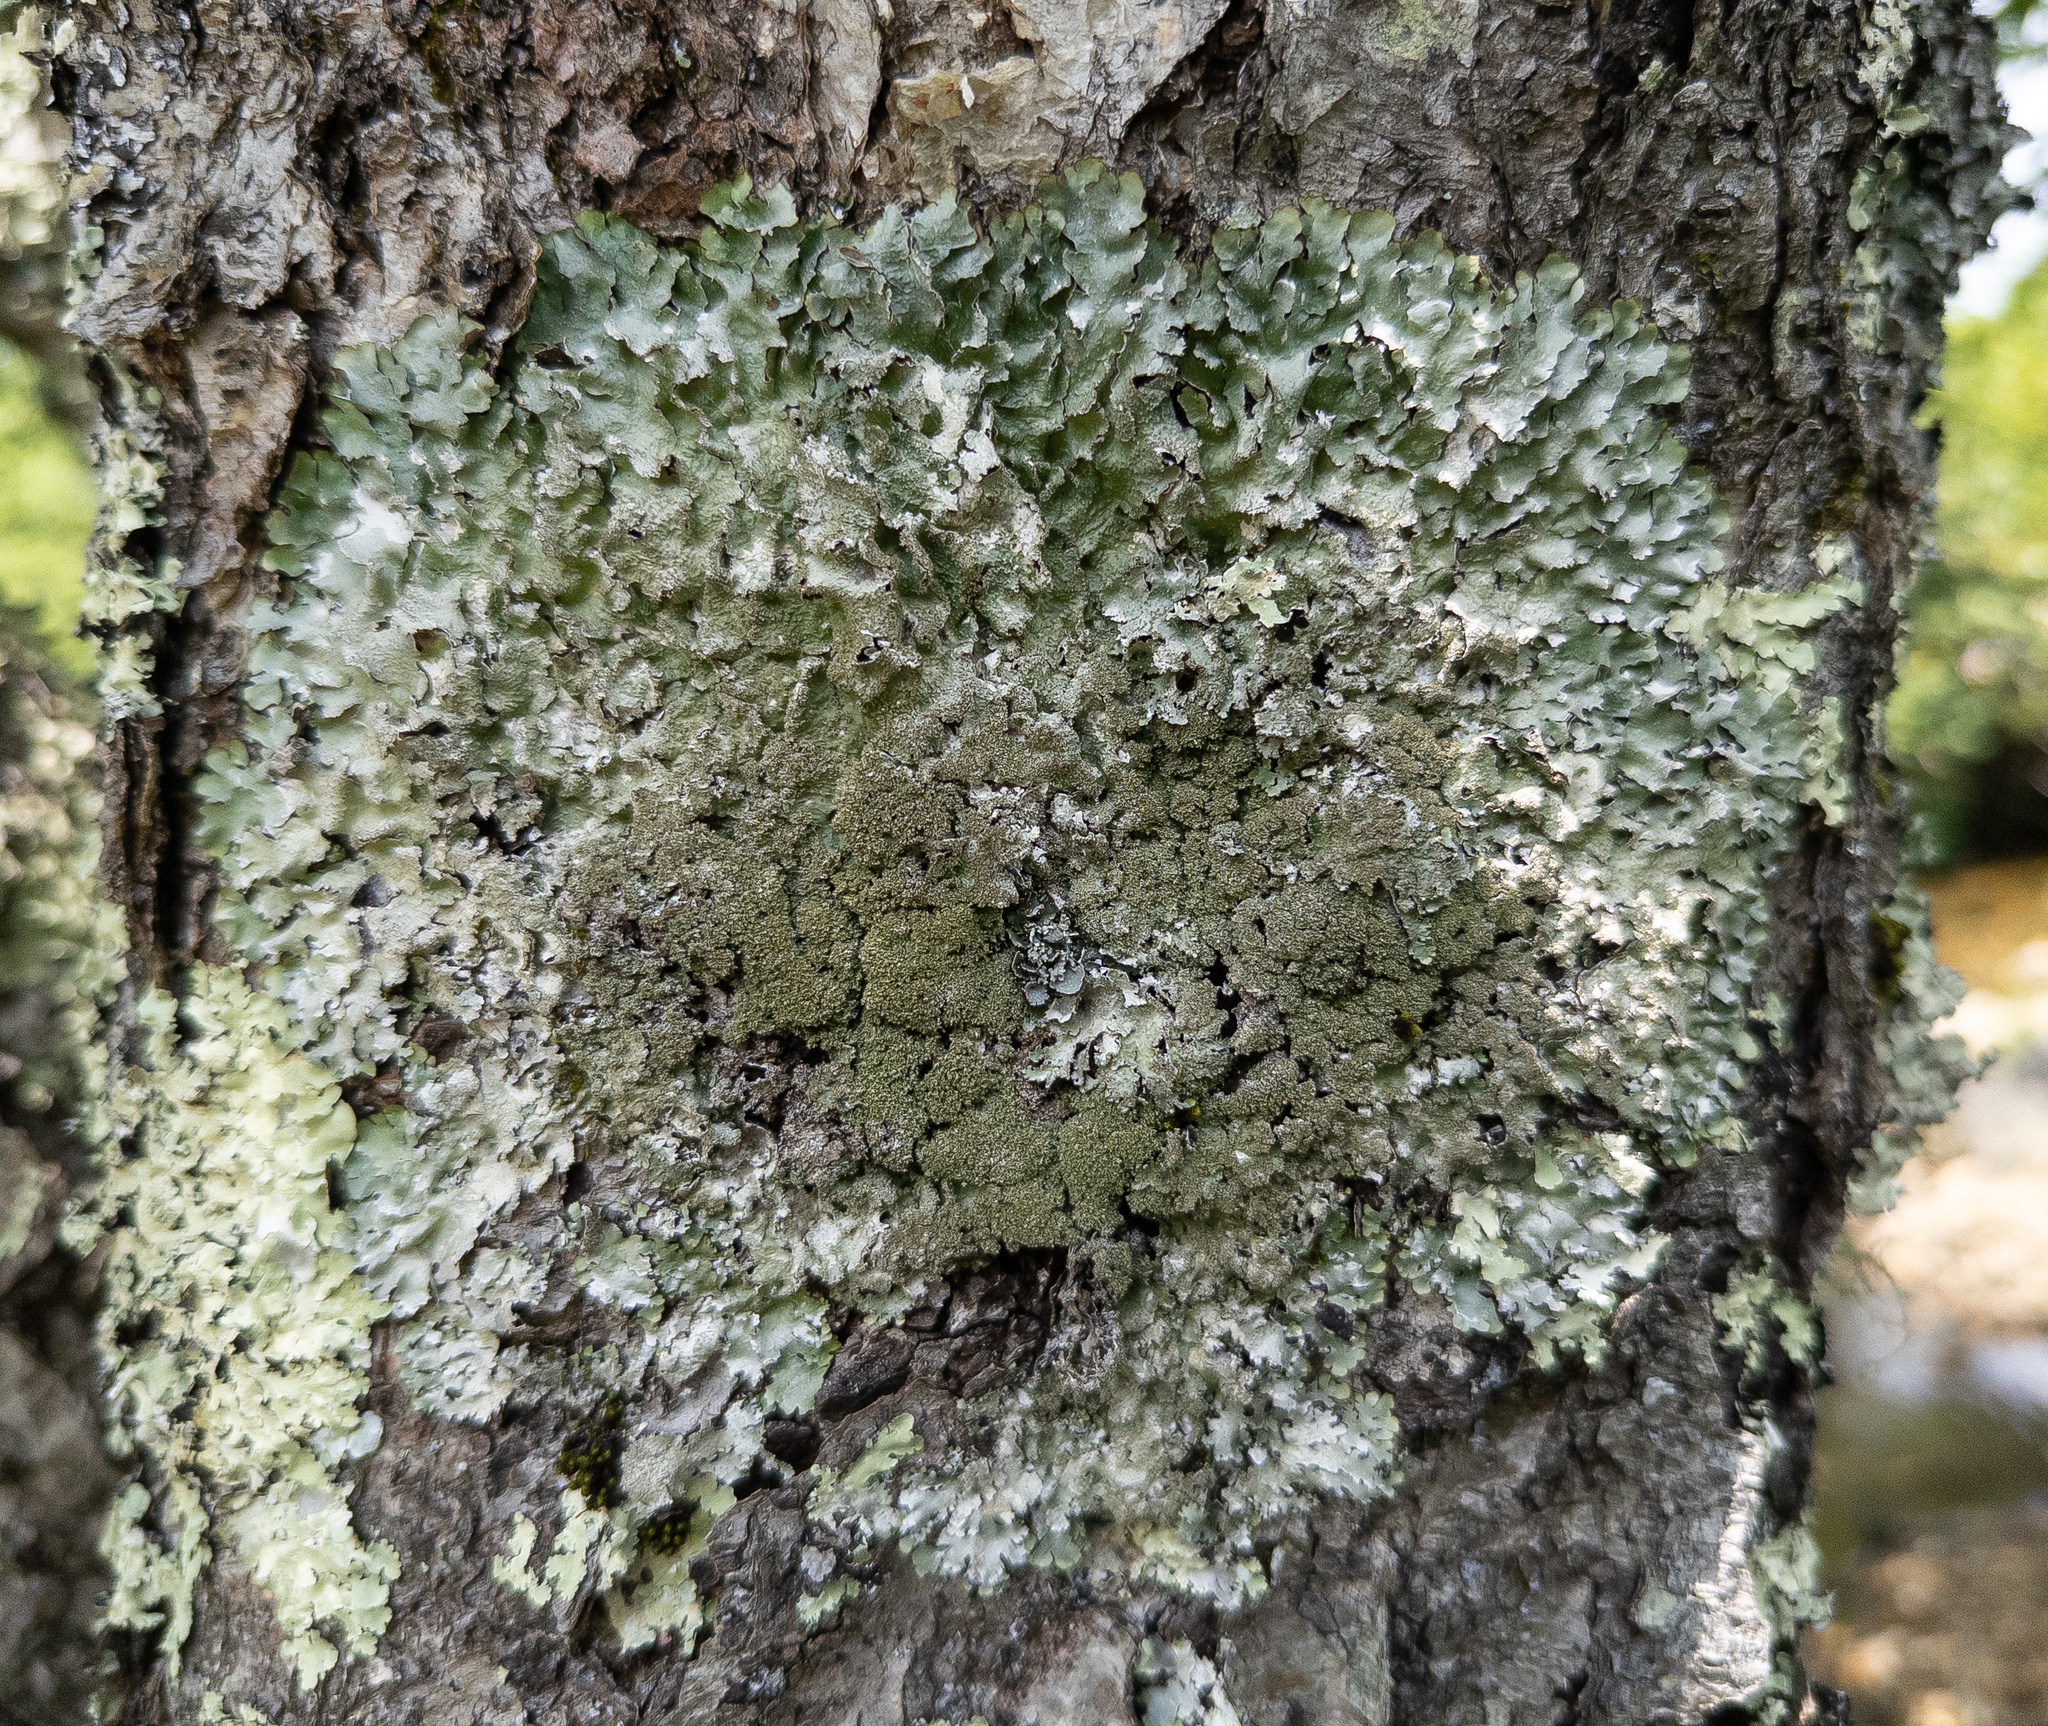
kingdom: Fungi
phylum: Ascomycota
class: Lecanoromycetes
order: Lecanorales
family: Parmeliaceae
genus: Punctelia
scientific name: Punctelia rudecta
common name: Rough speckled shield lichen
